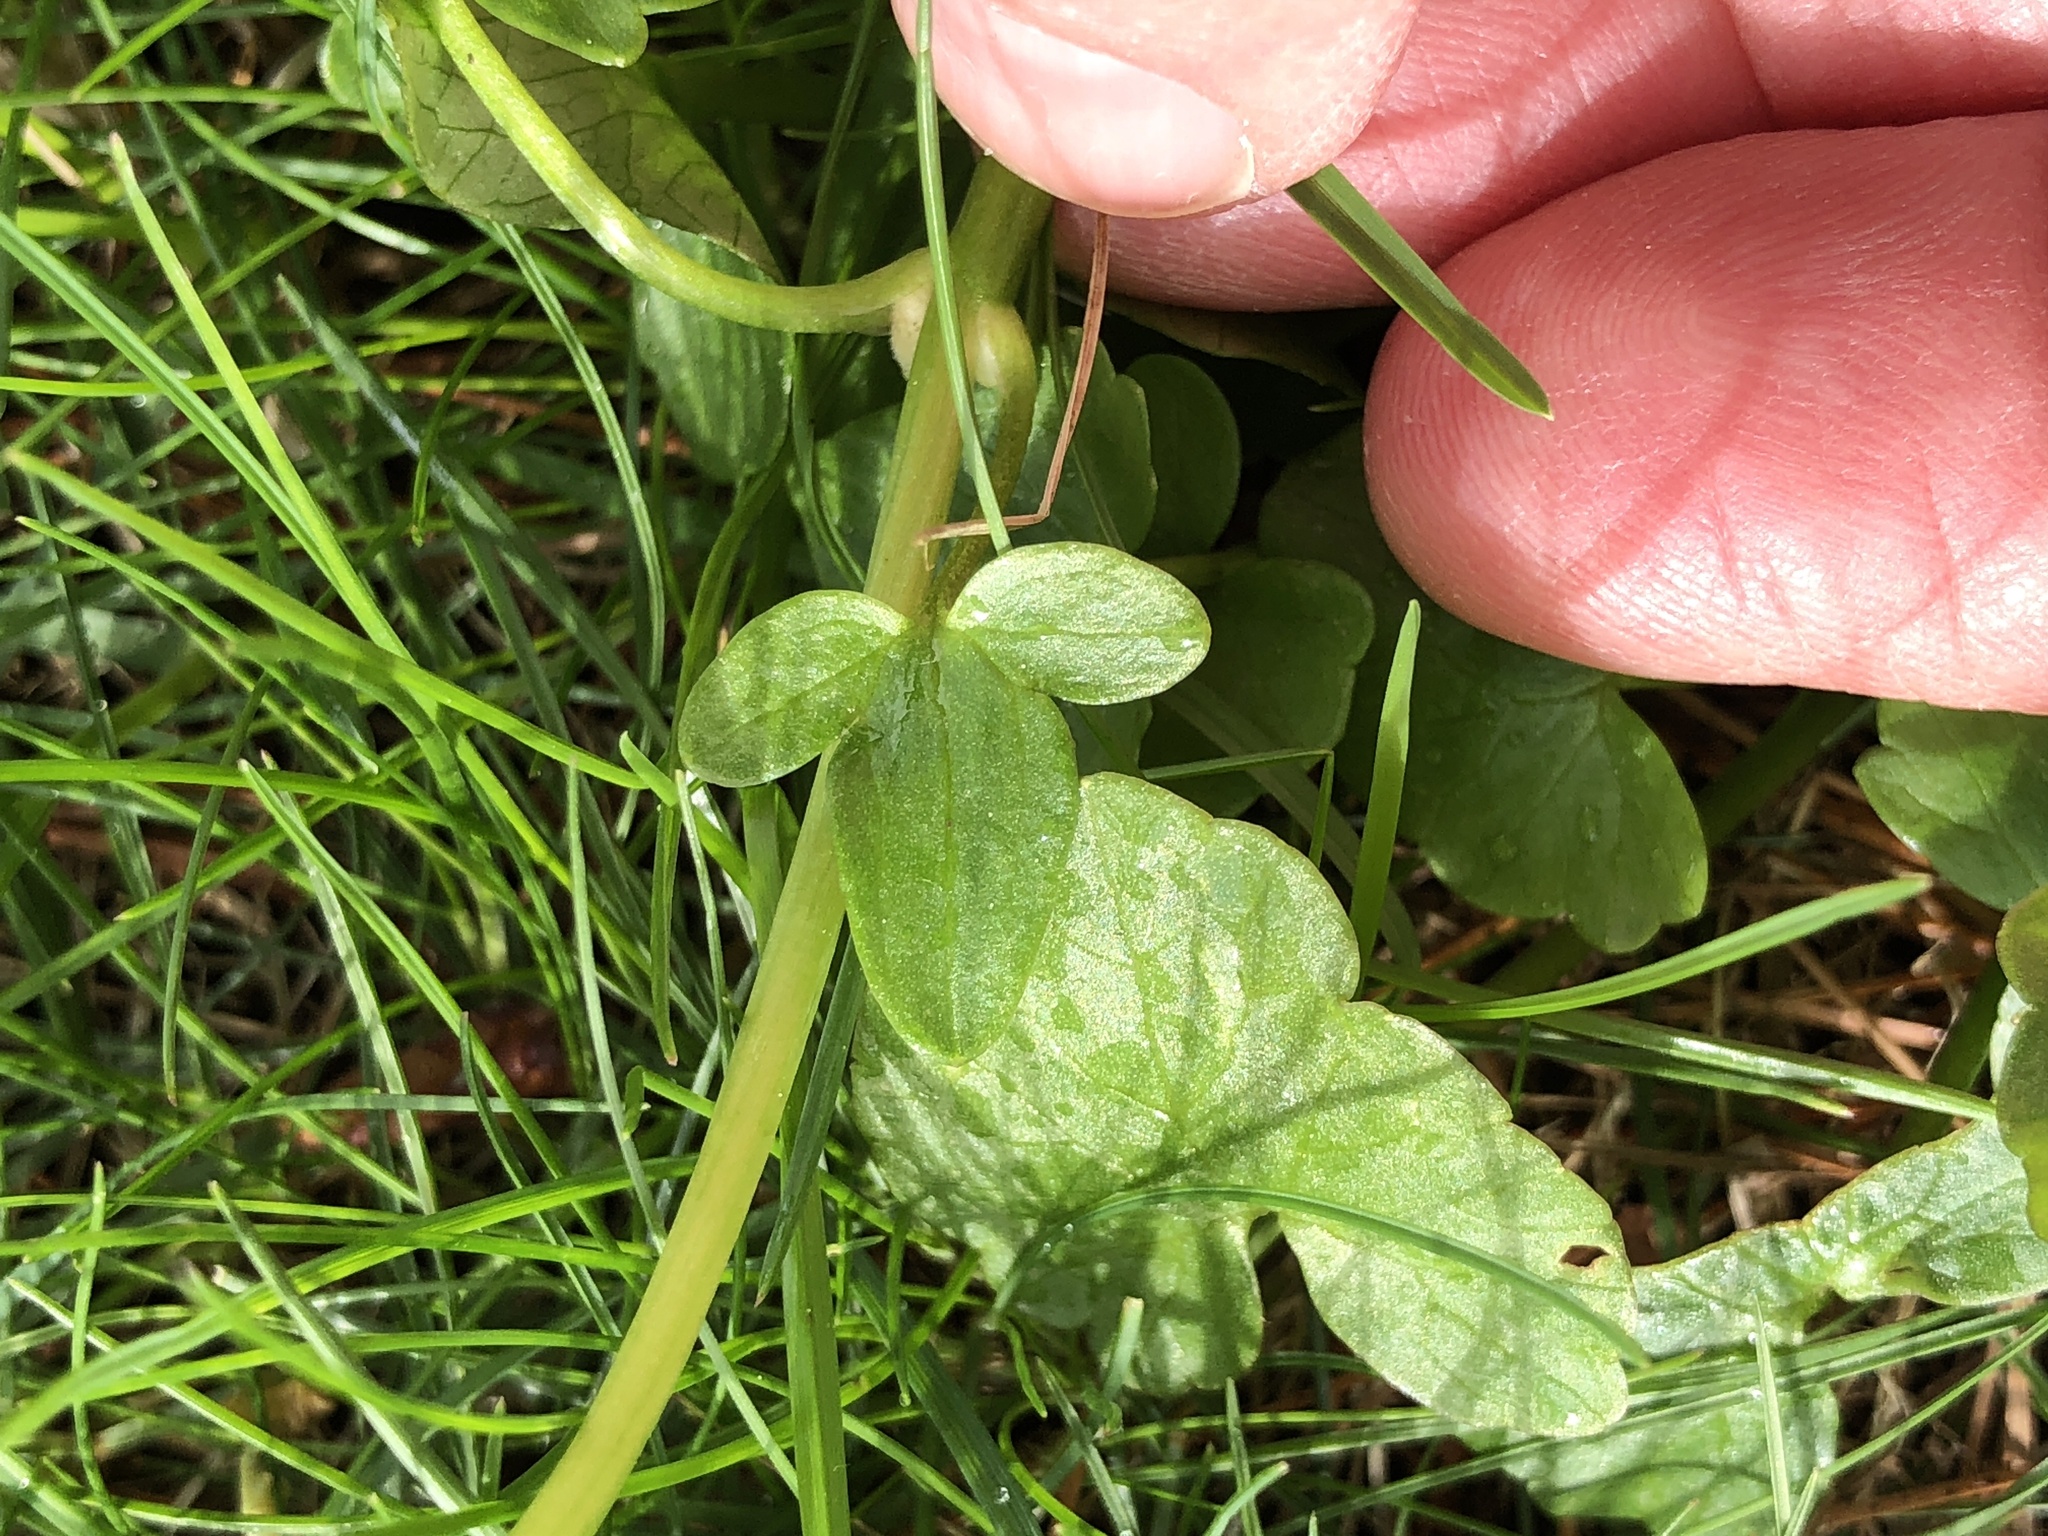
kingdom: Plantae
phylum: Tracheophyta
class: Magnoliopsida
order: Ranunculales
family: Ranunculaceae
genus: Ficaria
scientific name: Ficaria verna
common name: Lesser celandine
